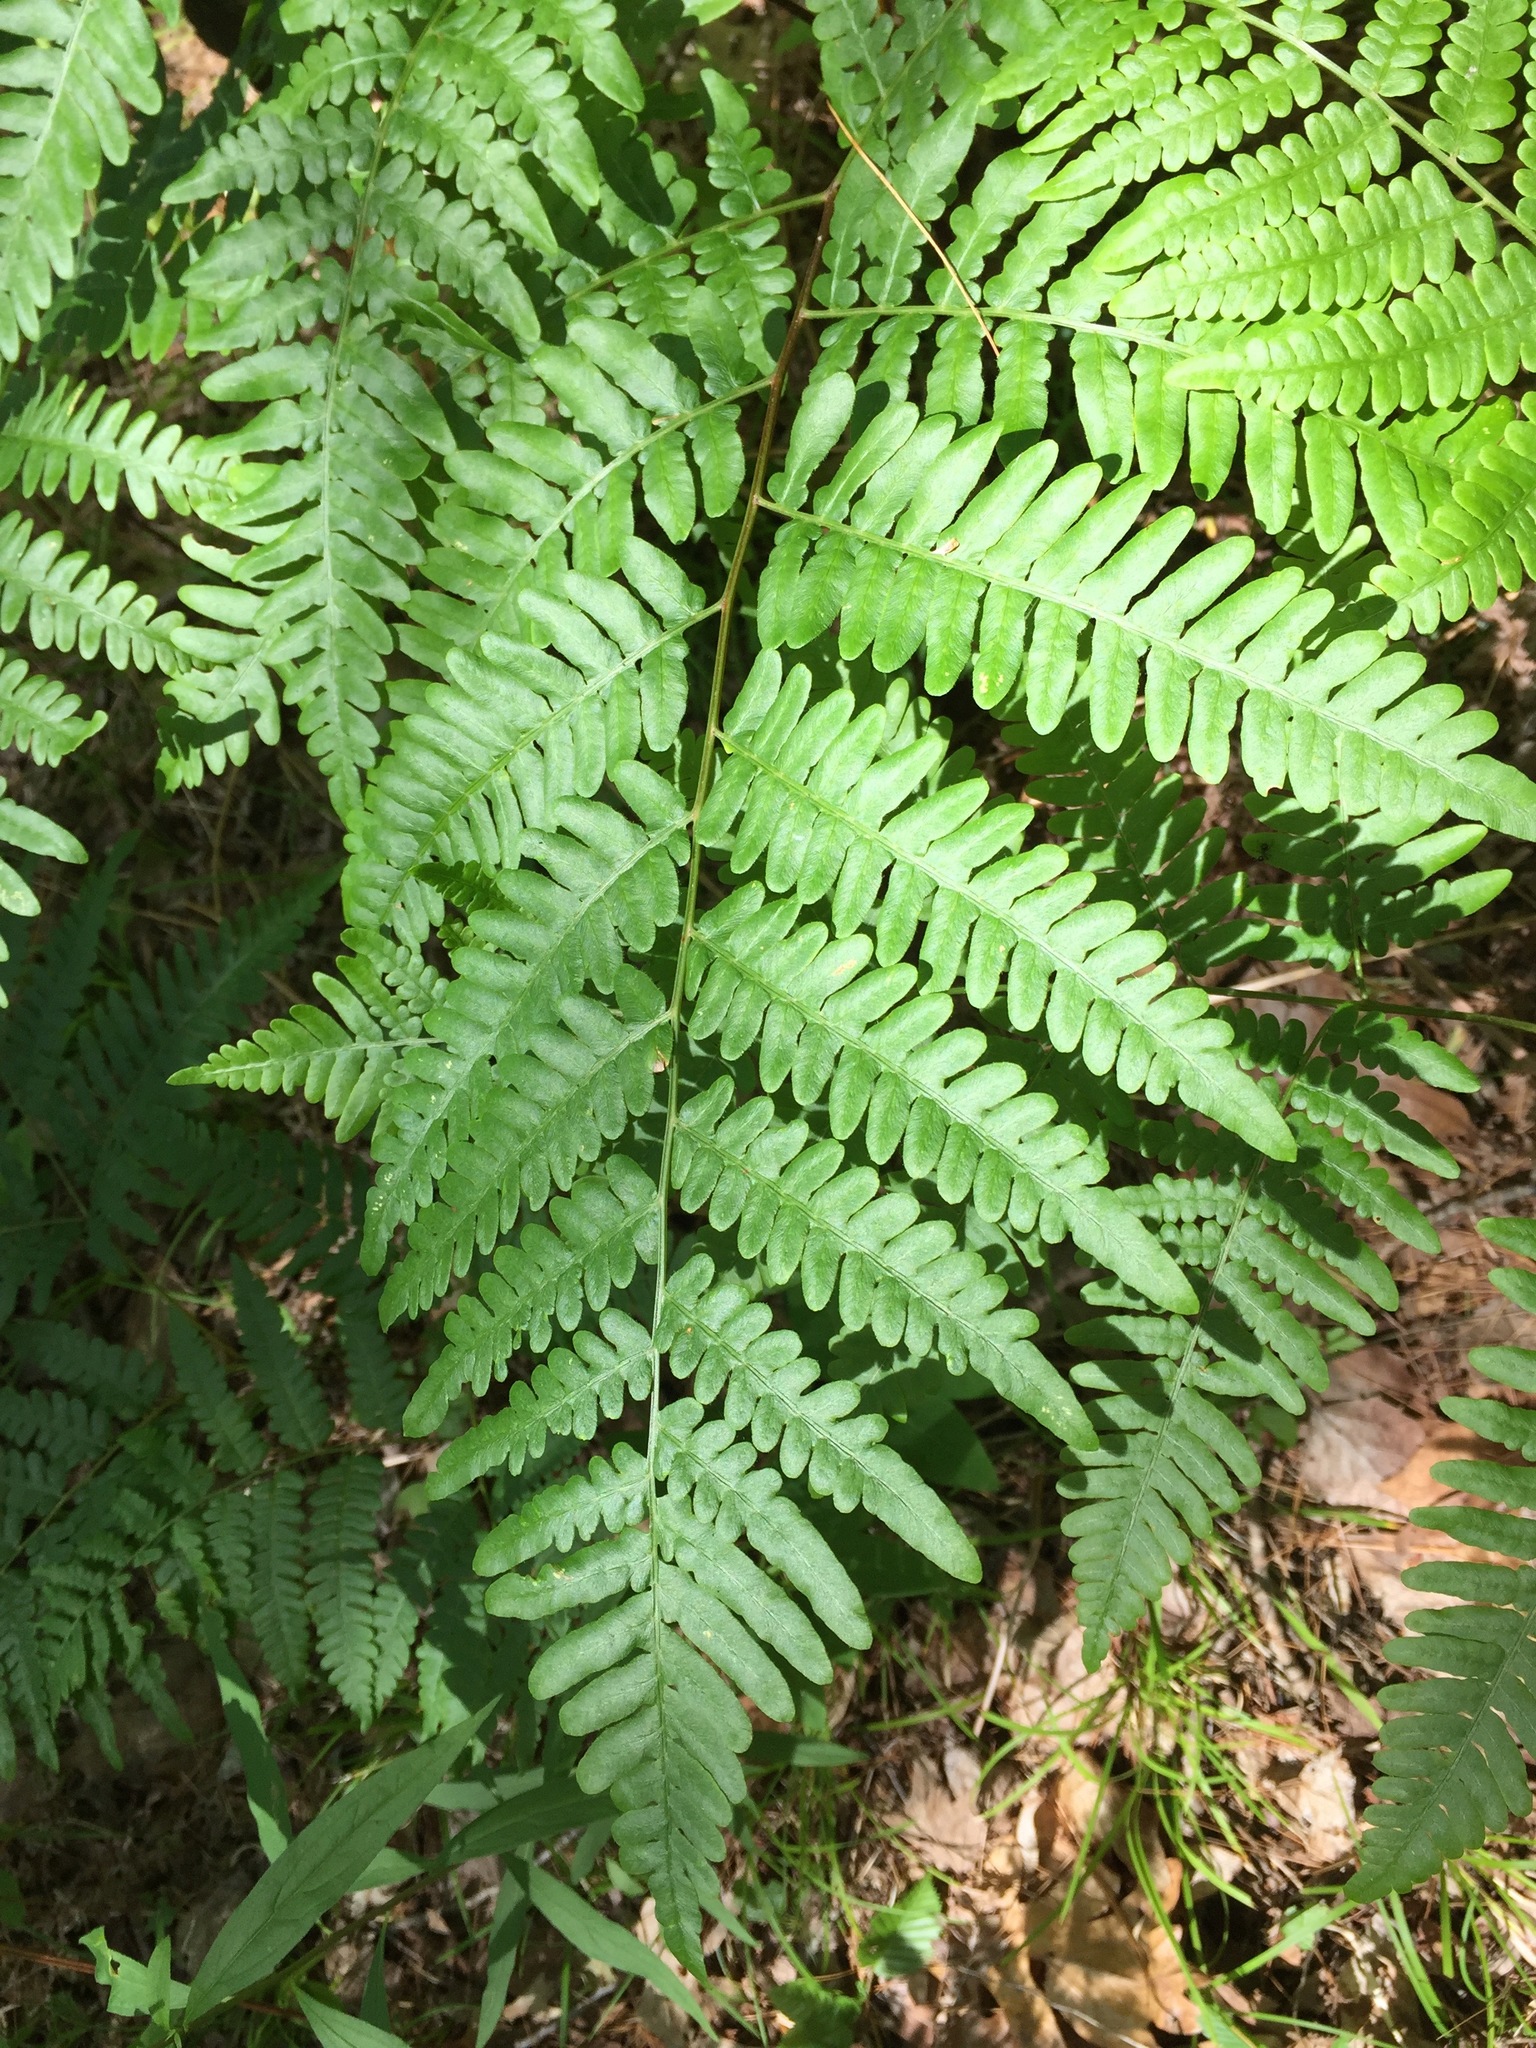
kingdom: Plantae
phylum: Tracheophyta
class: Polypodiopsida
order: Polypodiales
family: Dennstaedtiaceae
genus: Pteridium
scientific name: Pteridium aquilinum
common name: Bracken
